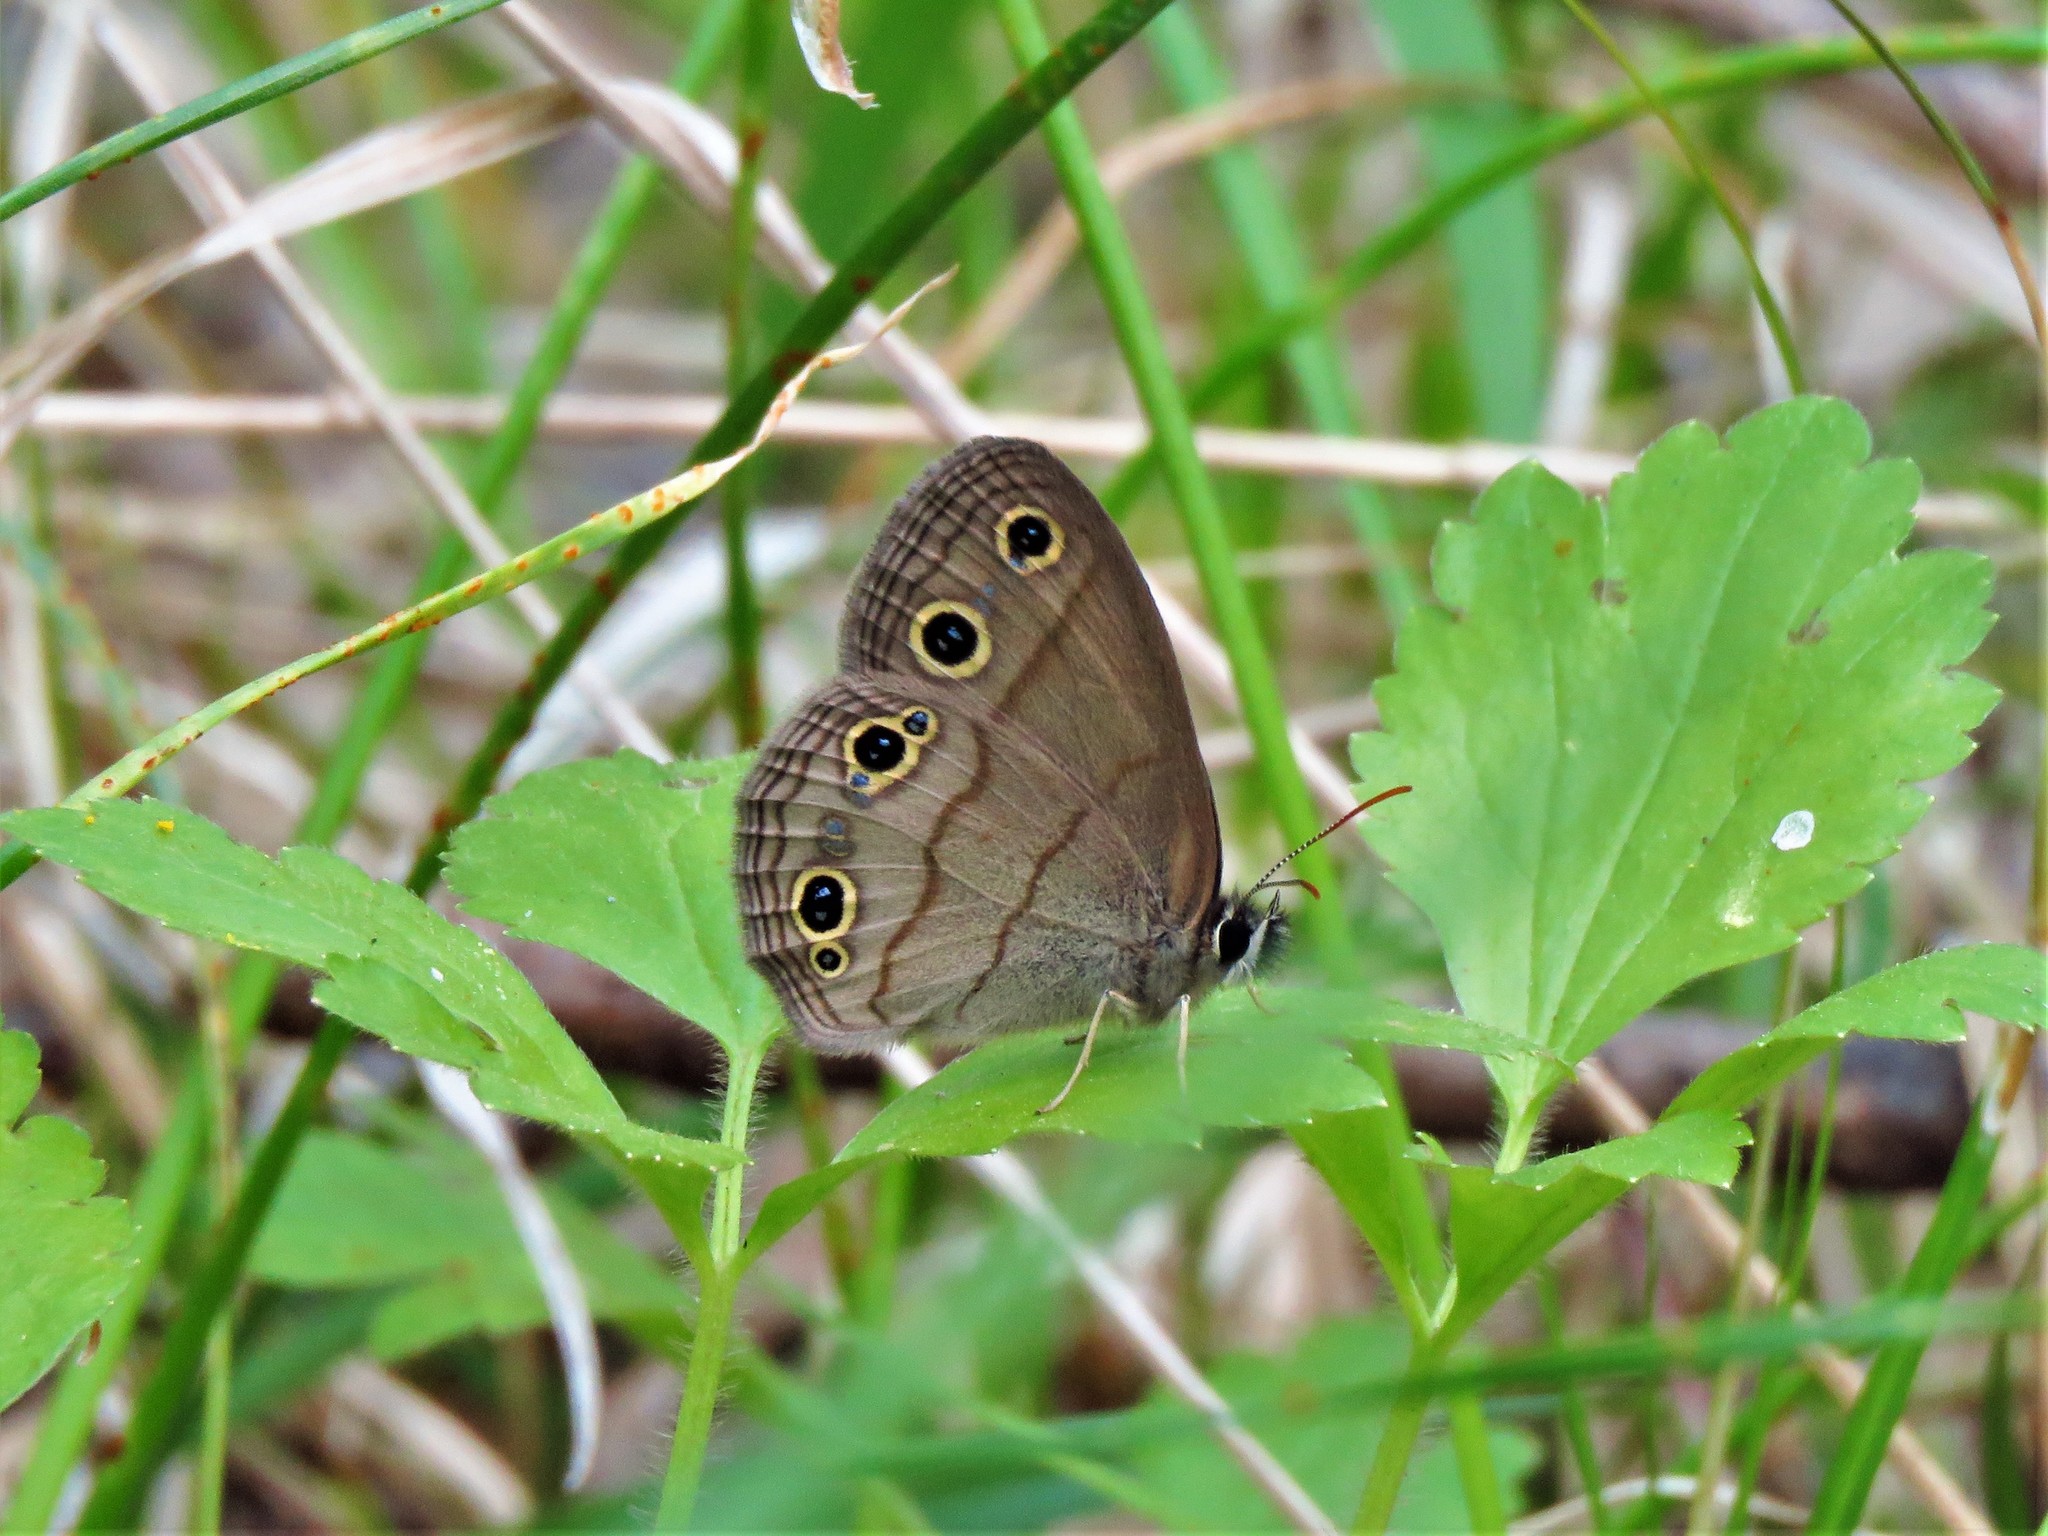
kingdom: Animalia
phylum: Arthropoda
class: Insecta
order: Lepidoptera
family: Nymphalidae
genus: Euptychia
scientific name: Euptychia cymela
